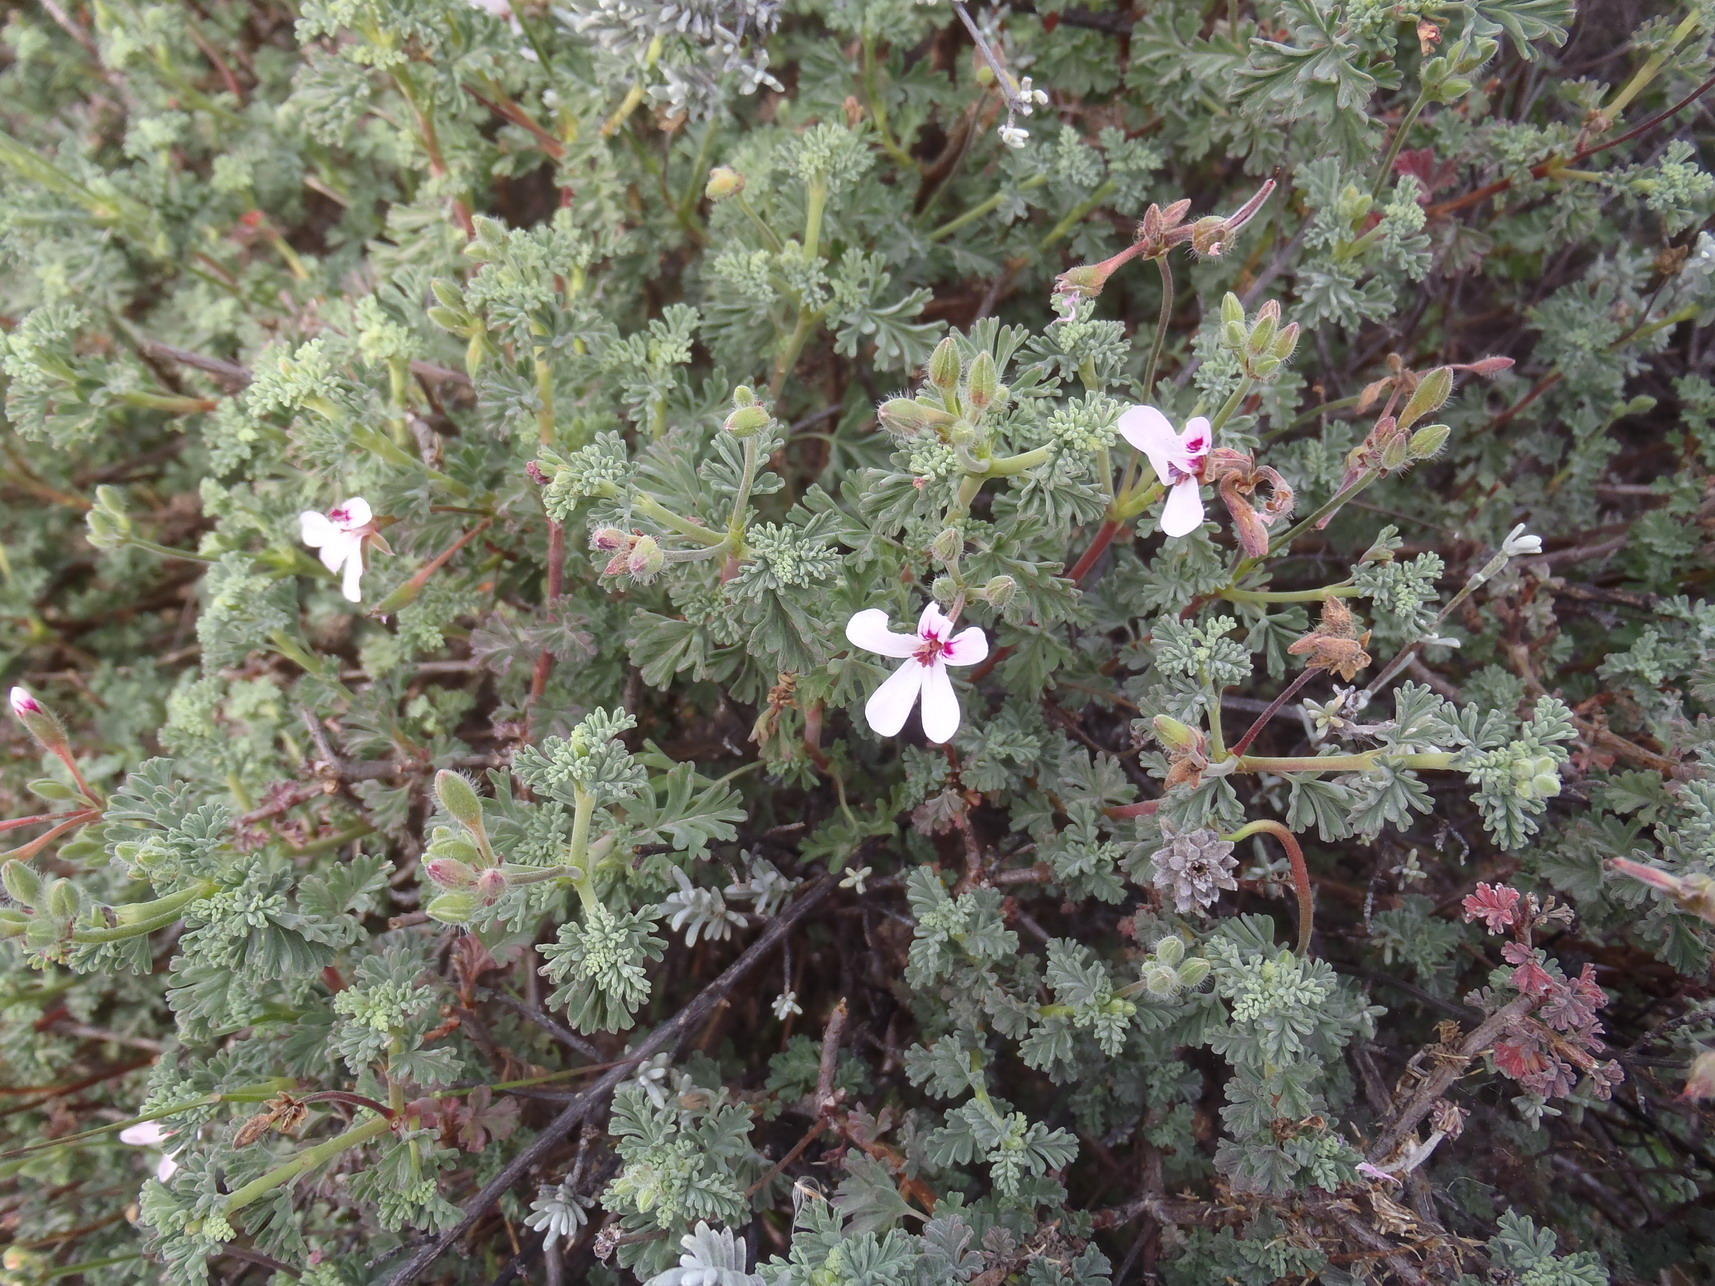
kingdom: Plantae
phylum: Tracheophyta
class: Magnoliopsida
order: Geraniales
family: Geraniaceae
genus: Pelargonium
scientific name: Pelargonium abrotanifolium
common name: Southernwood geranium
